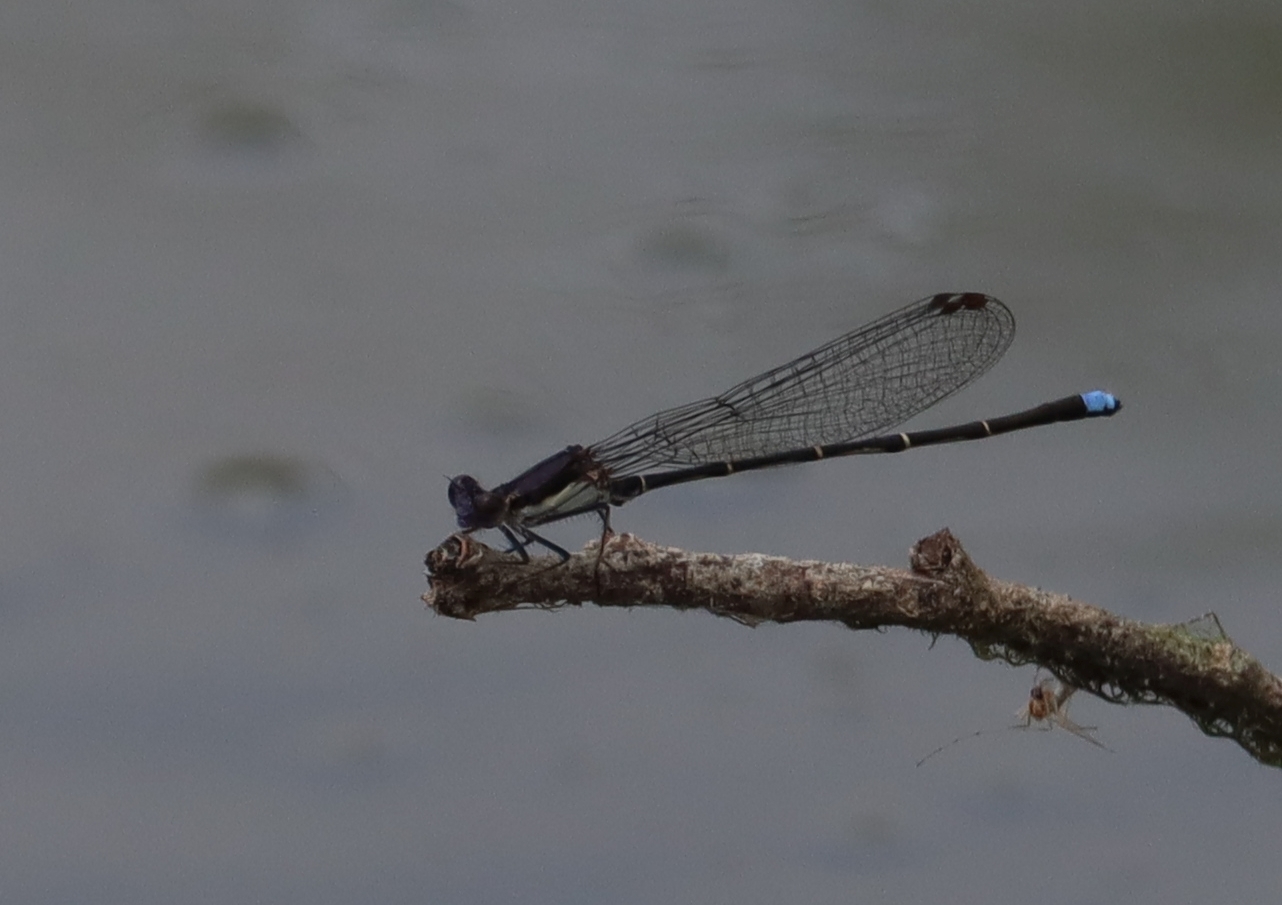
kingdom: Animalia
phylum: Arthropoda
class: Insecta
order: Odonata
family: Coenagrionidae
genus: Argia
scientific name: Argia tibialis
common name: Blue-tipped dancer
